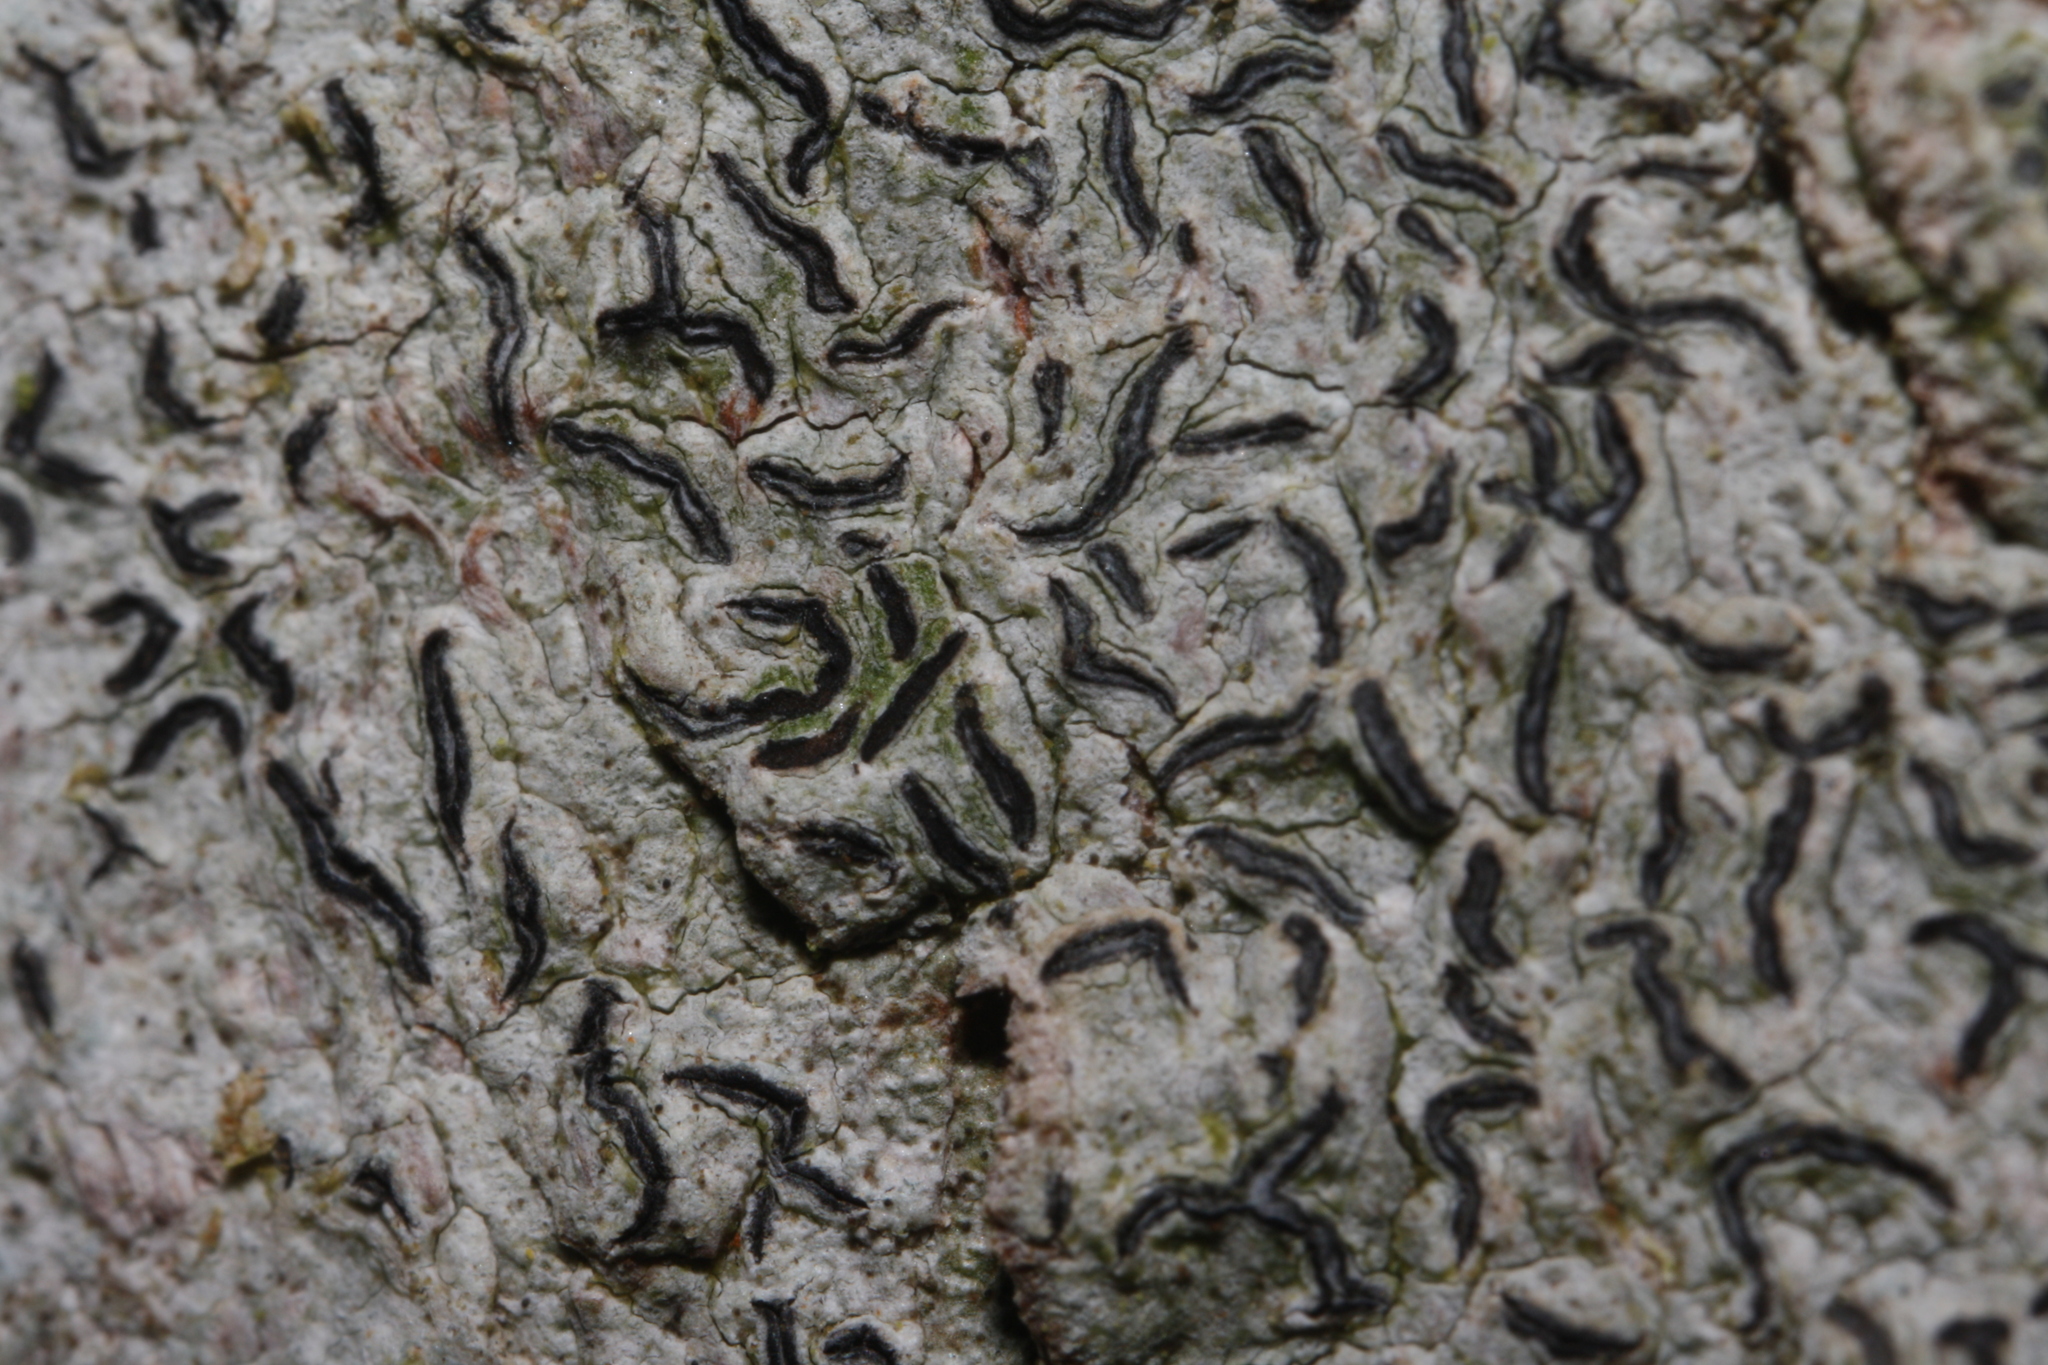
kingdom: Fungi
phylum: Ascomycota
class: Lecanoromycetes
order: Ostropales
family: Graphidaceae
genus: Graphis
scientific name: Graphis scripta
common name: Script lichen
